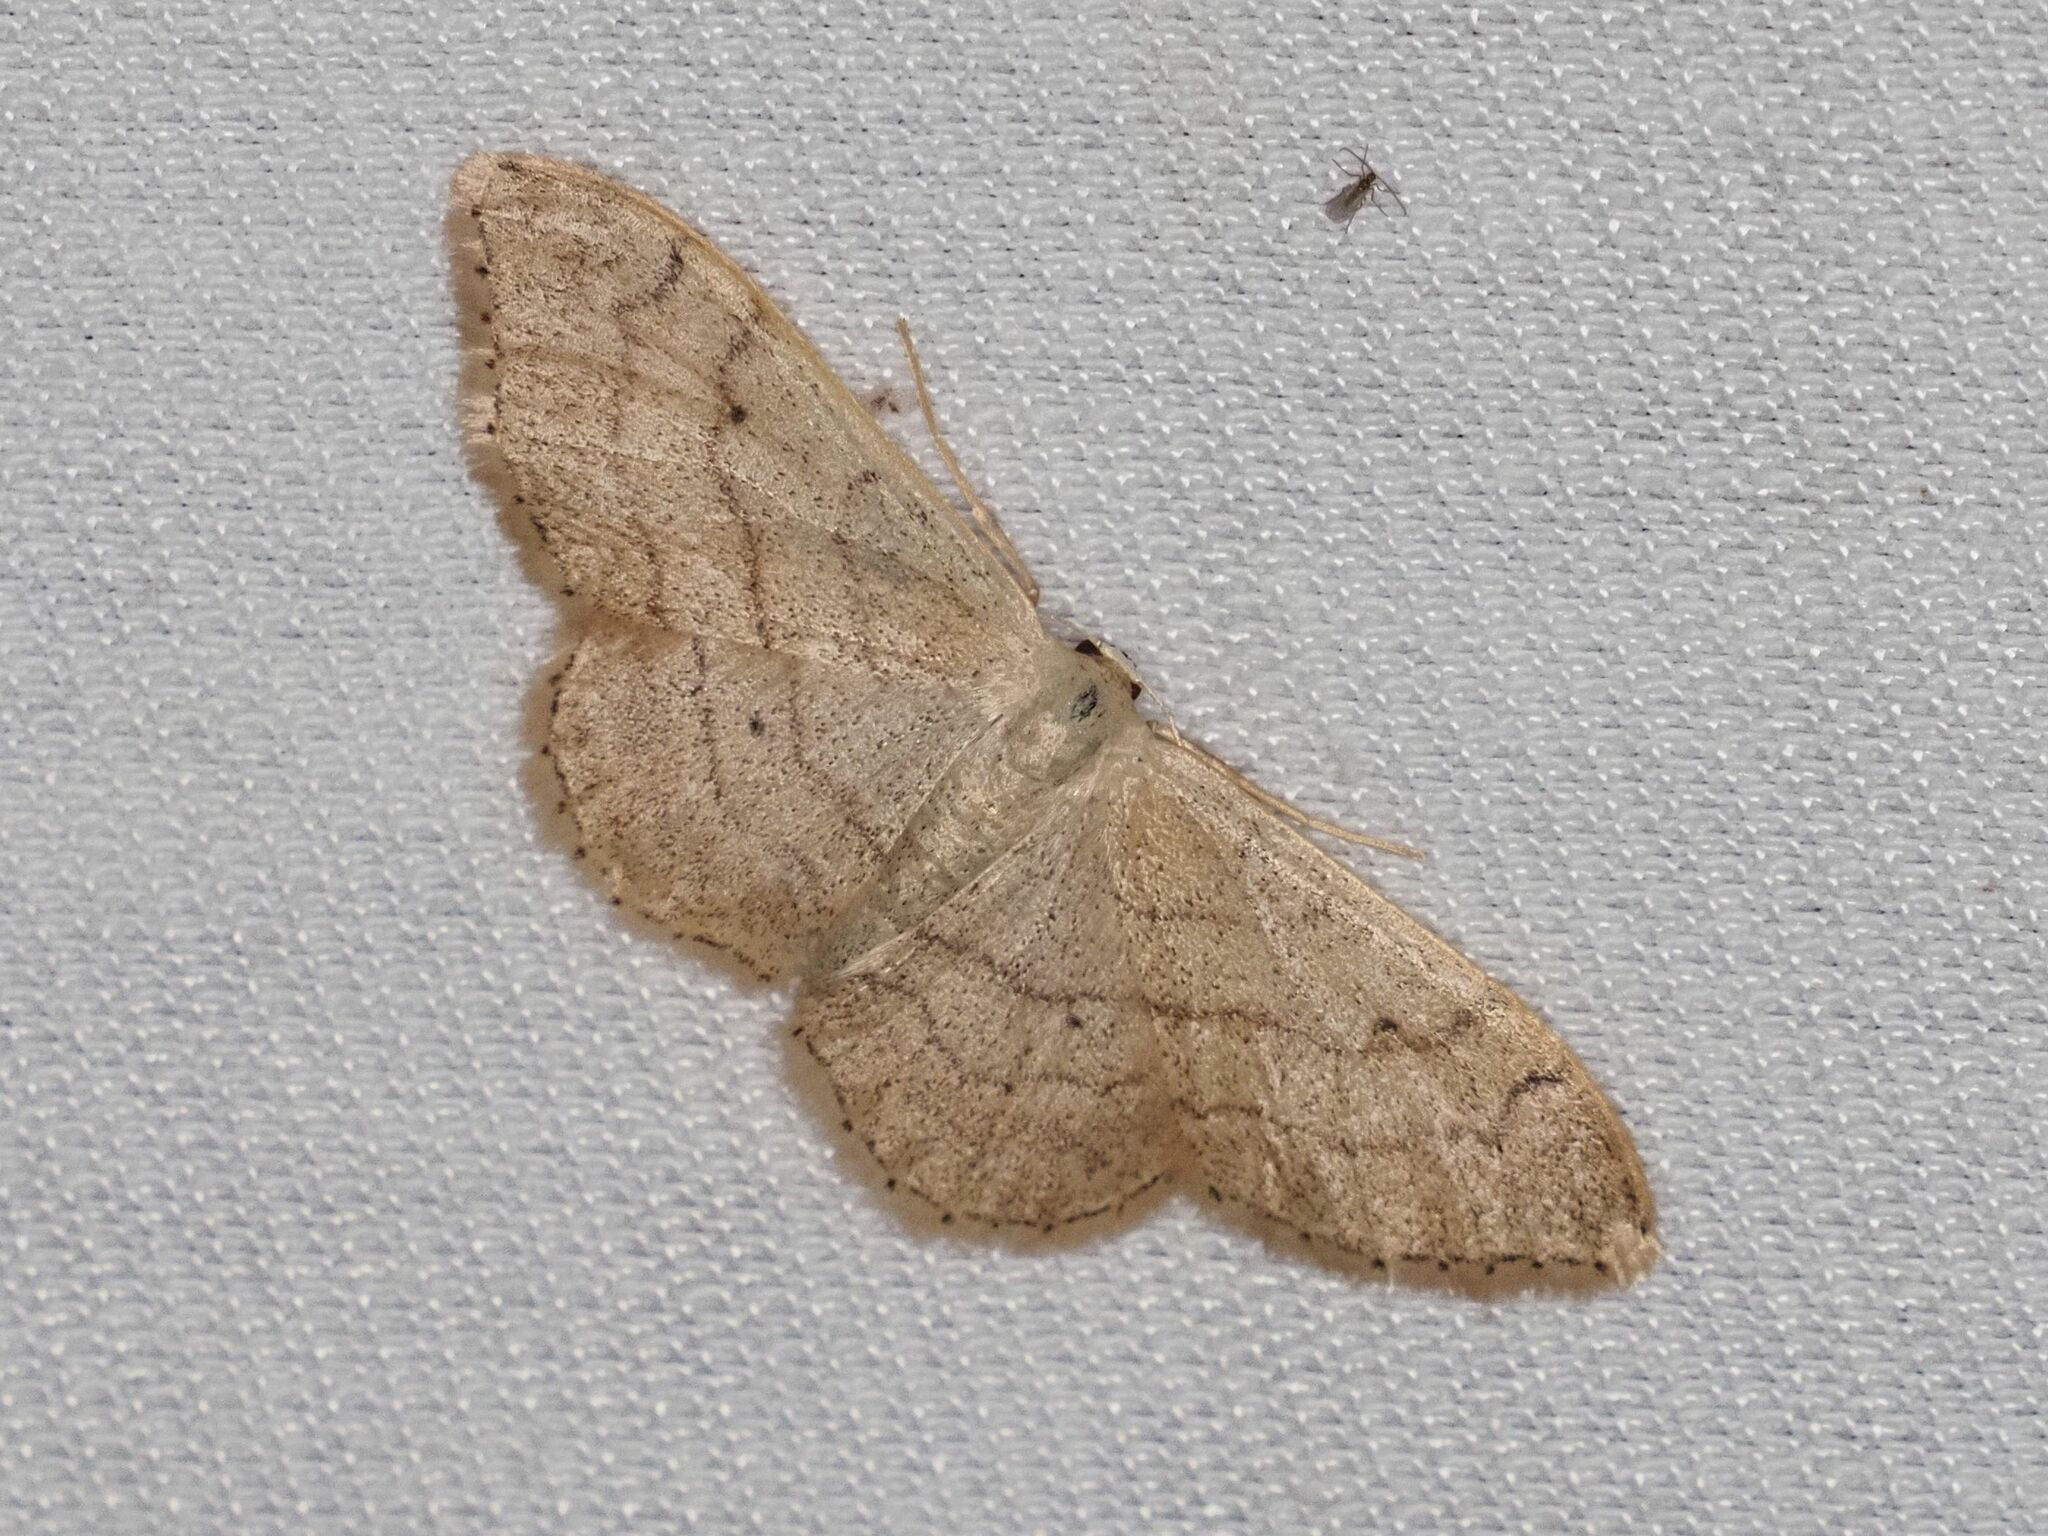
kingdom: Animalia
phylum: Arthropoda
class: Insecta
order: Lepidoptera
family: Geometridae
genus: Idaea
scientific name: Idaea aversata
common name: Riband wave
